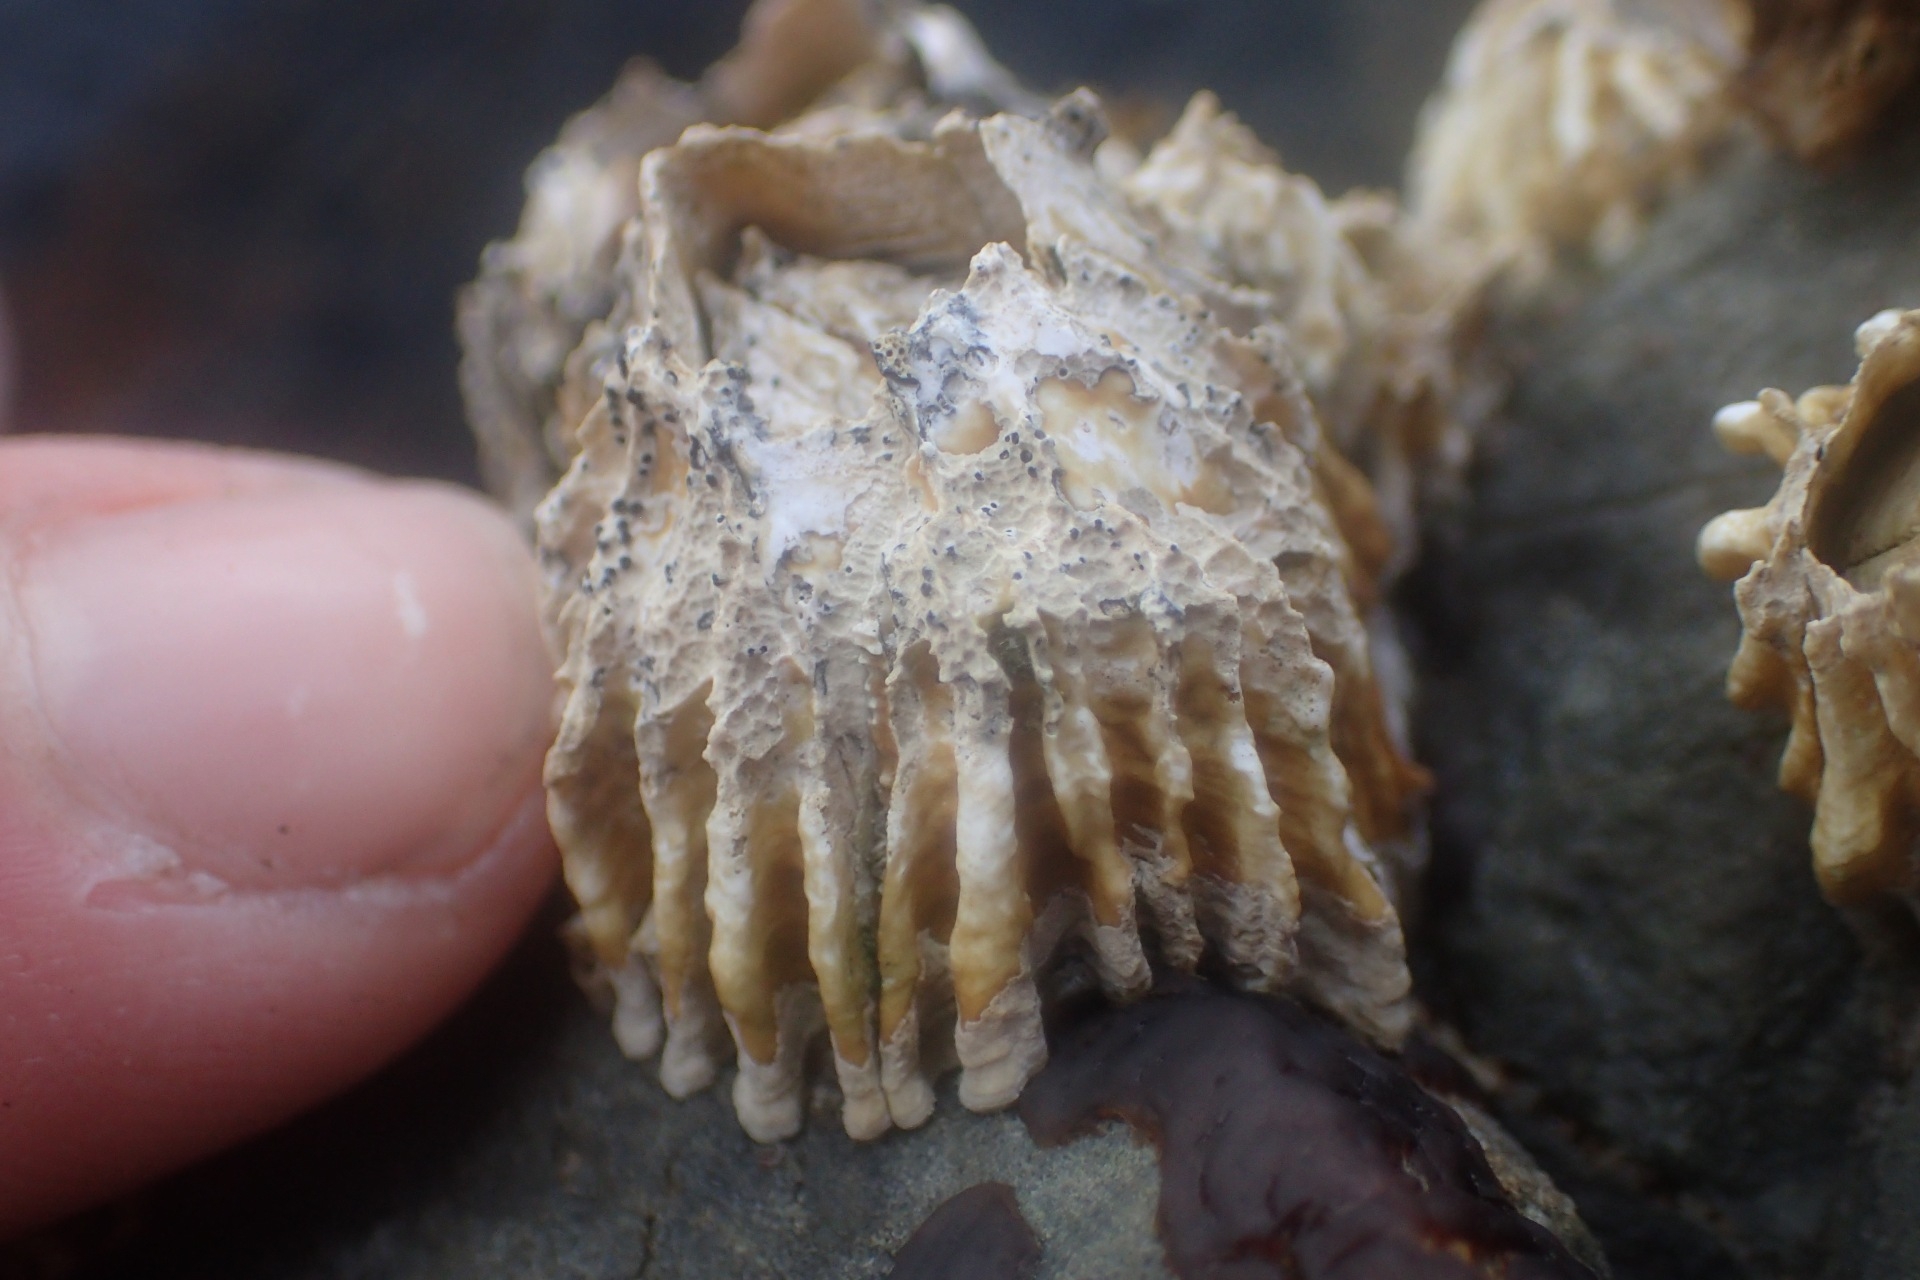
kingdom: Animalia
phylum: Arthropoda
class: Maxillopoda
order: Sessilia
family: Tetraclitidae
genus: Epopella
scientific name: Epopella plicata
